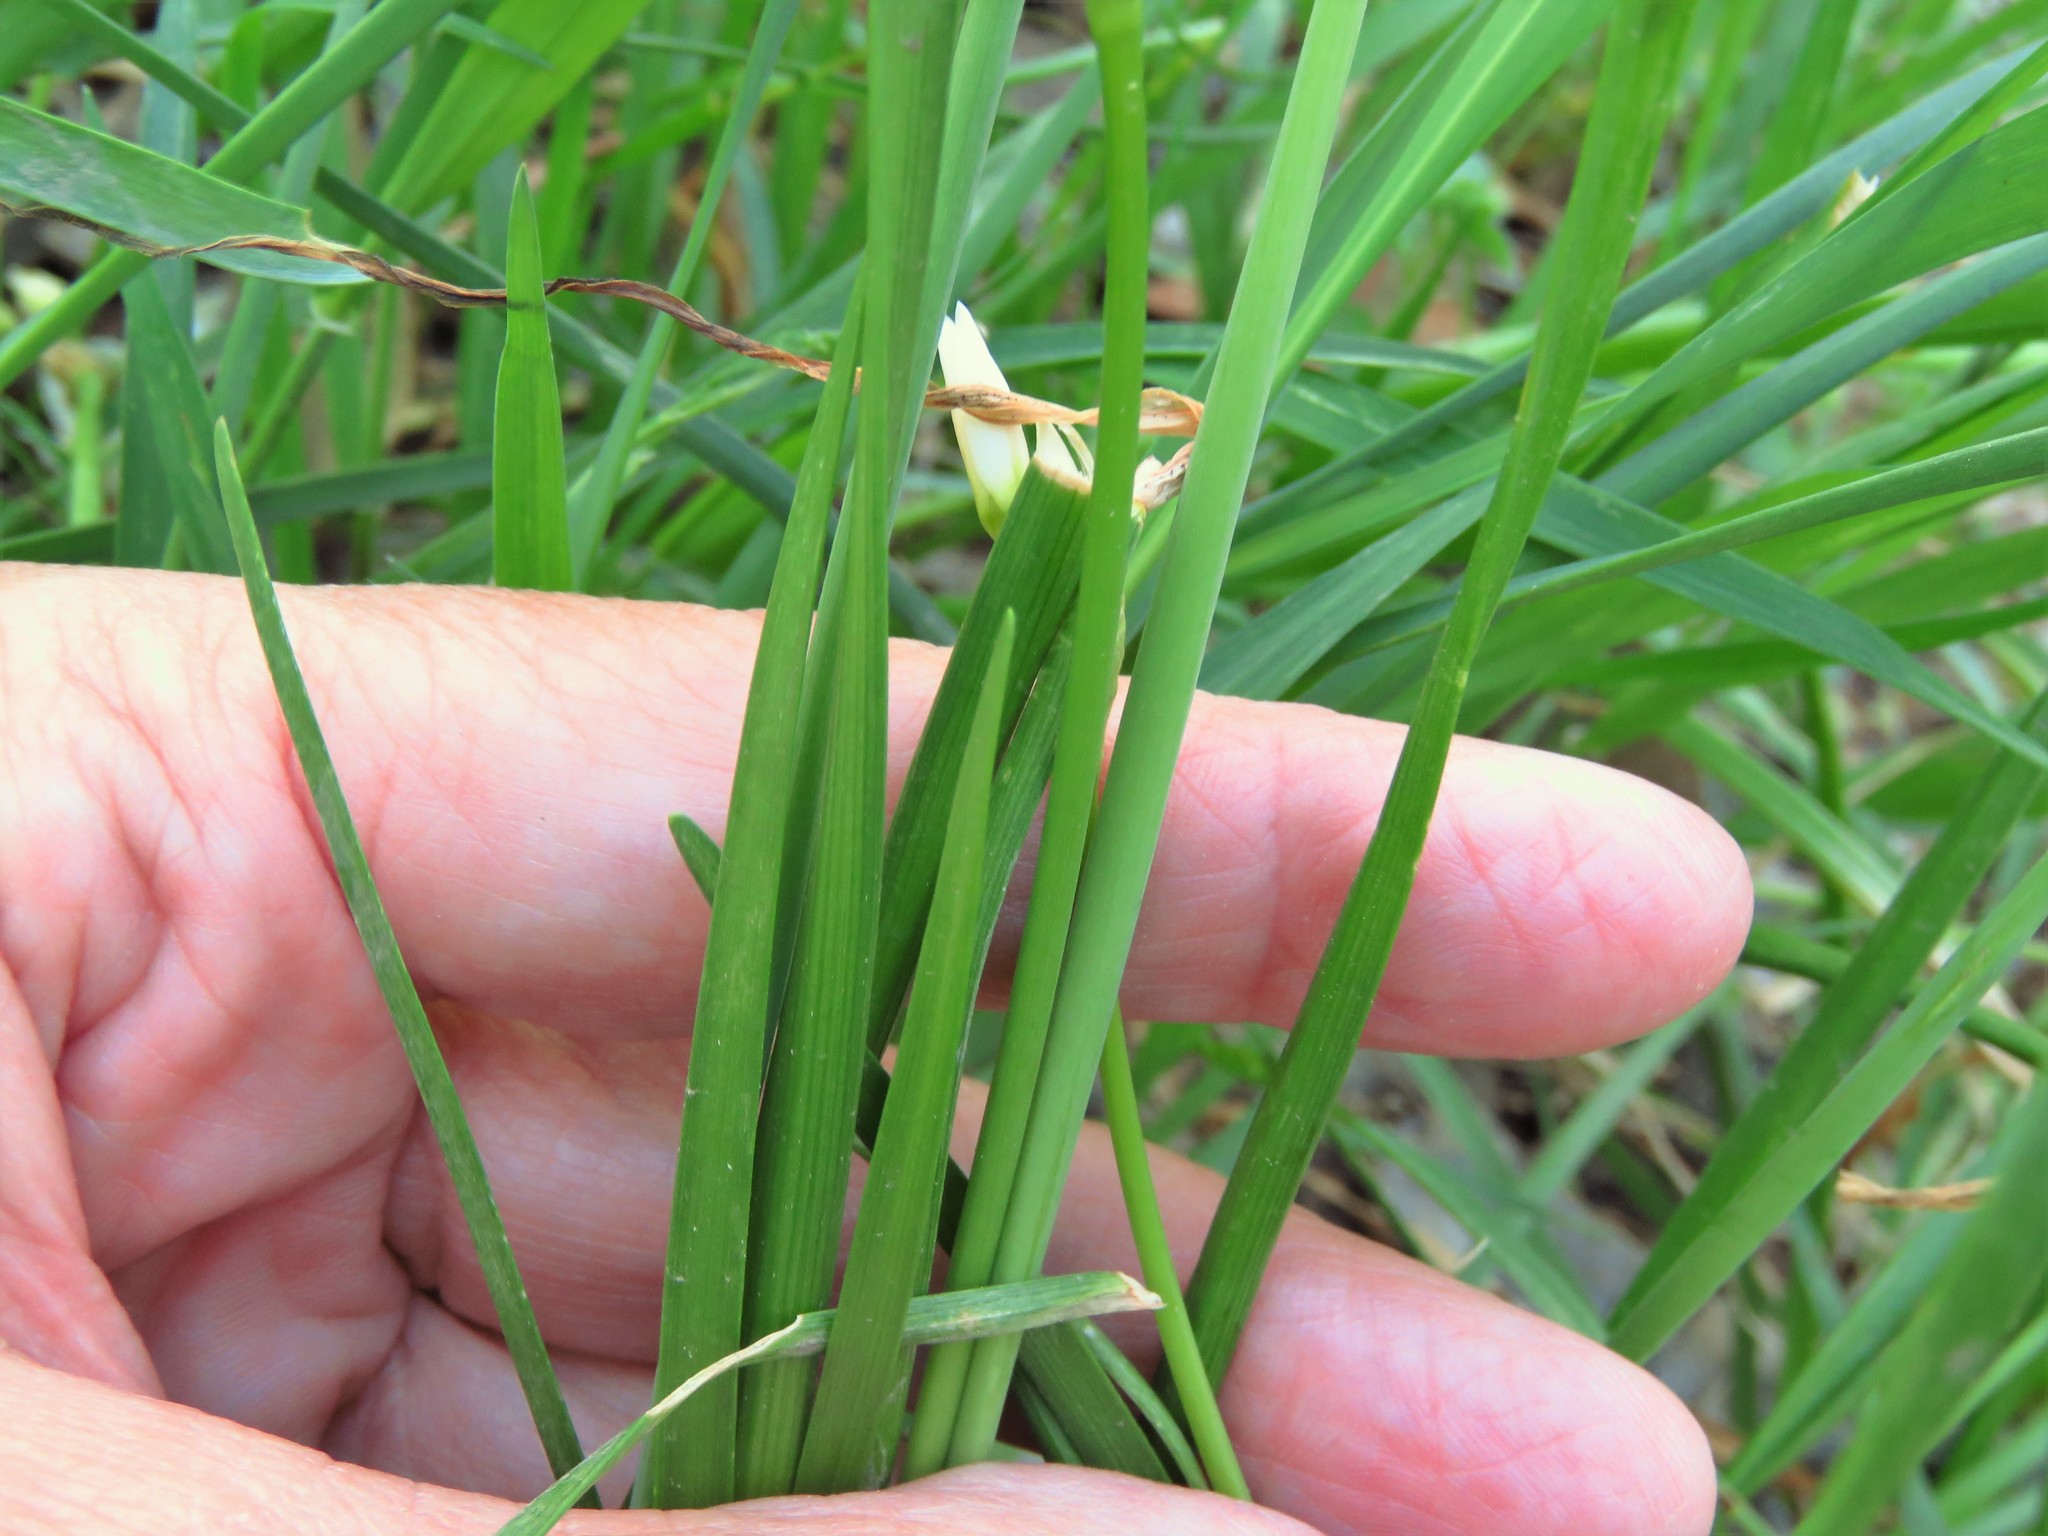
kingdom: Plantae
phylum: Tracheophyta
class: Liliopsida
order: Asparagales
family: Amaryllidaceae
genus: Nothoscordum
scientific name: Nothoscordum bivalve
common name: Crow-poison
